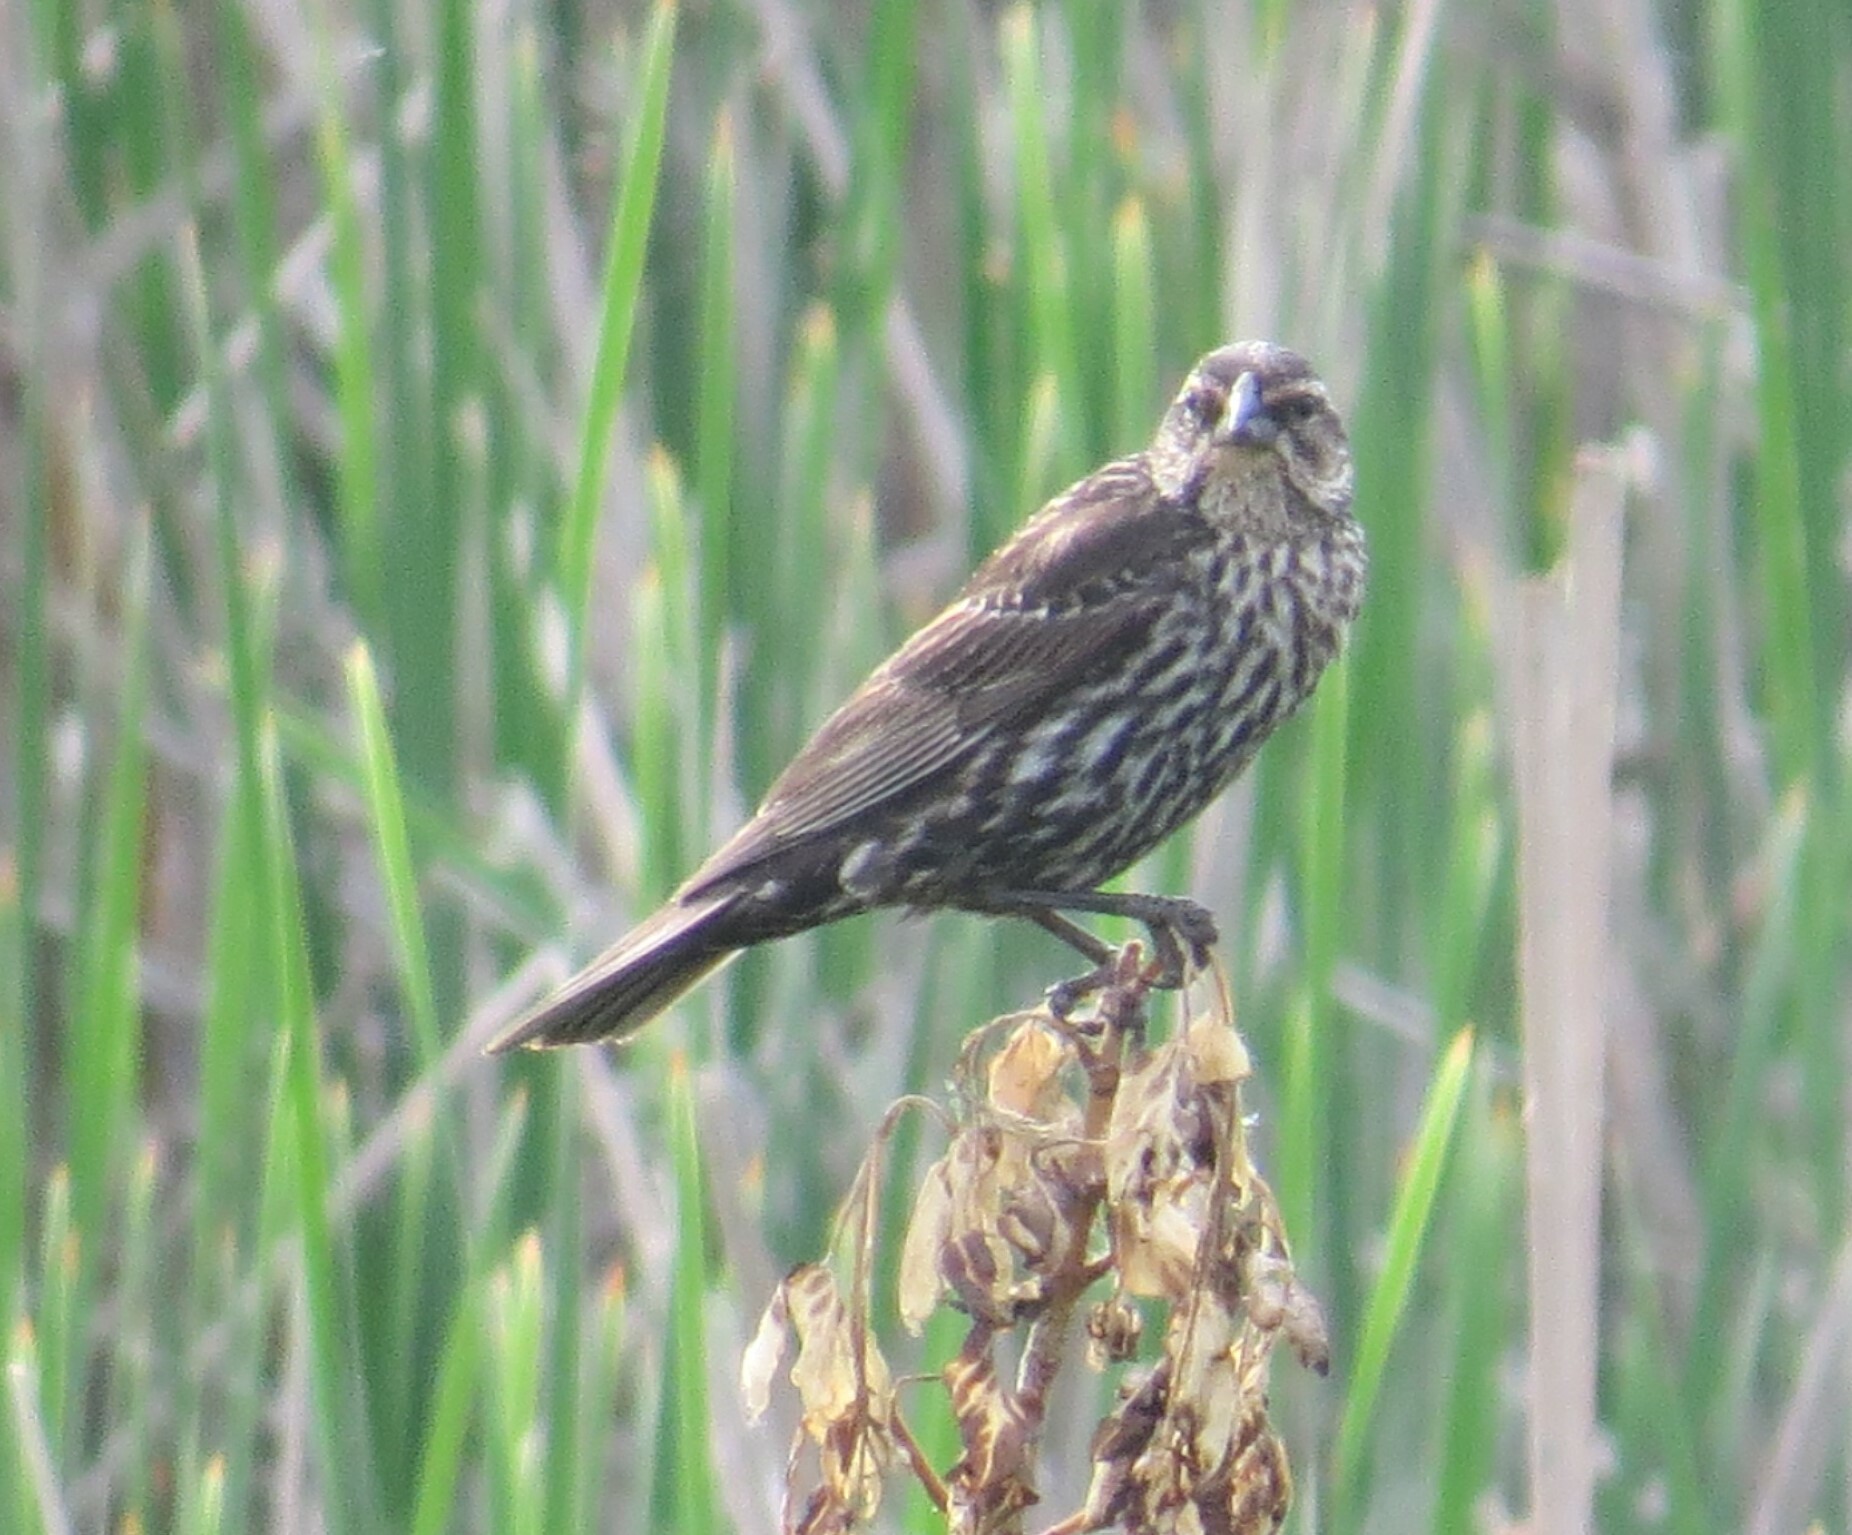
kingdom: Animalia
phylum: Chordata
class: Aves
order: Passeriformes
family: Icteridae
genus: Agelaius
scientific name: Agelaius phoeniceus
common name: Red-winged blackbird
